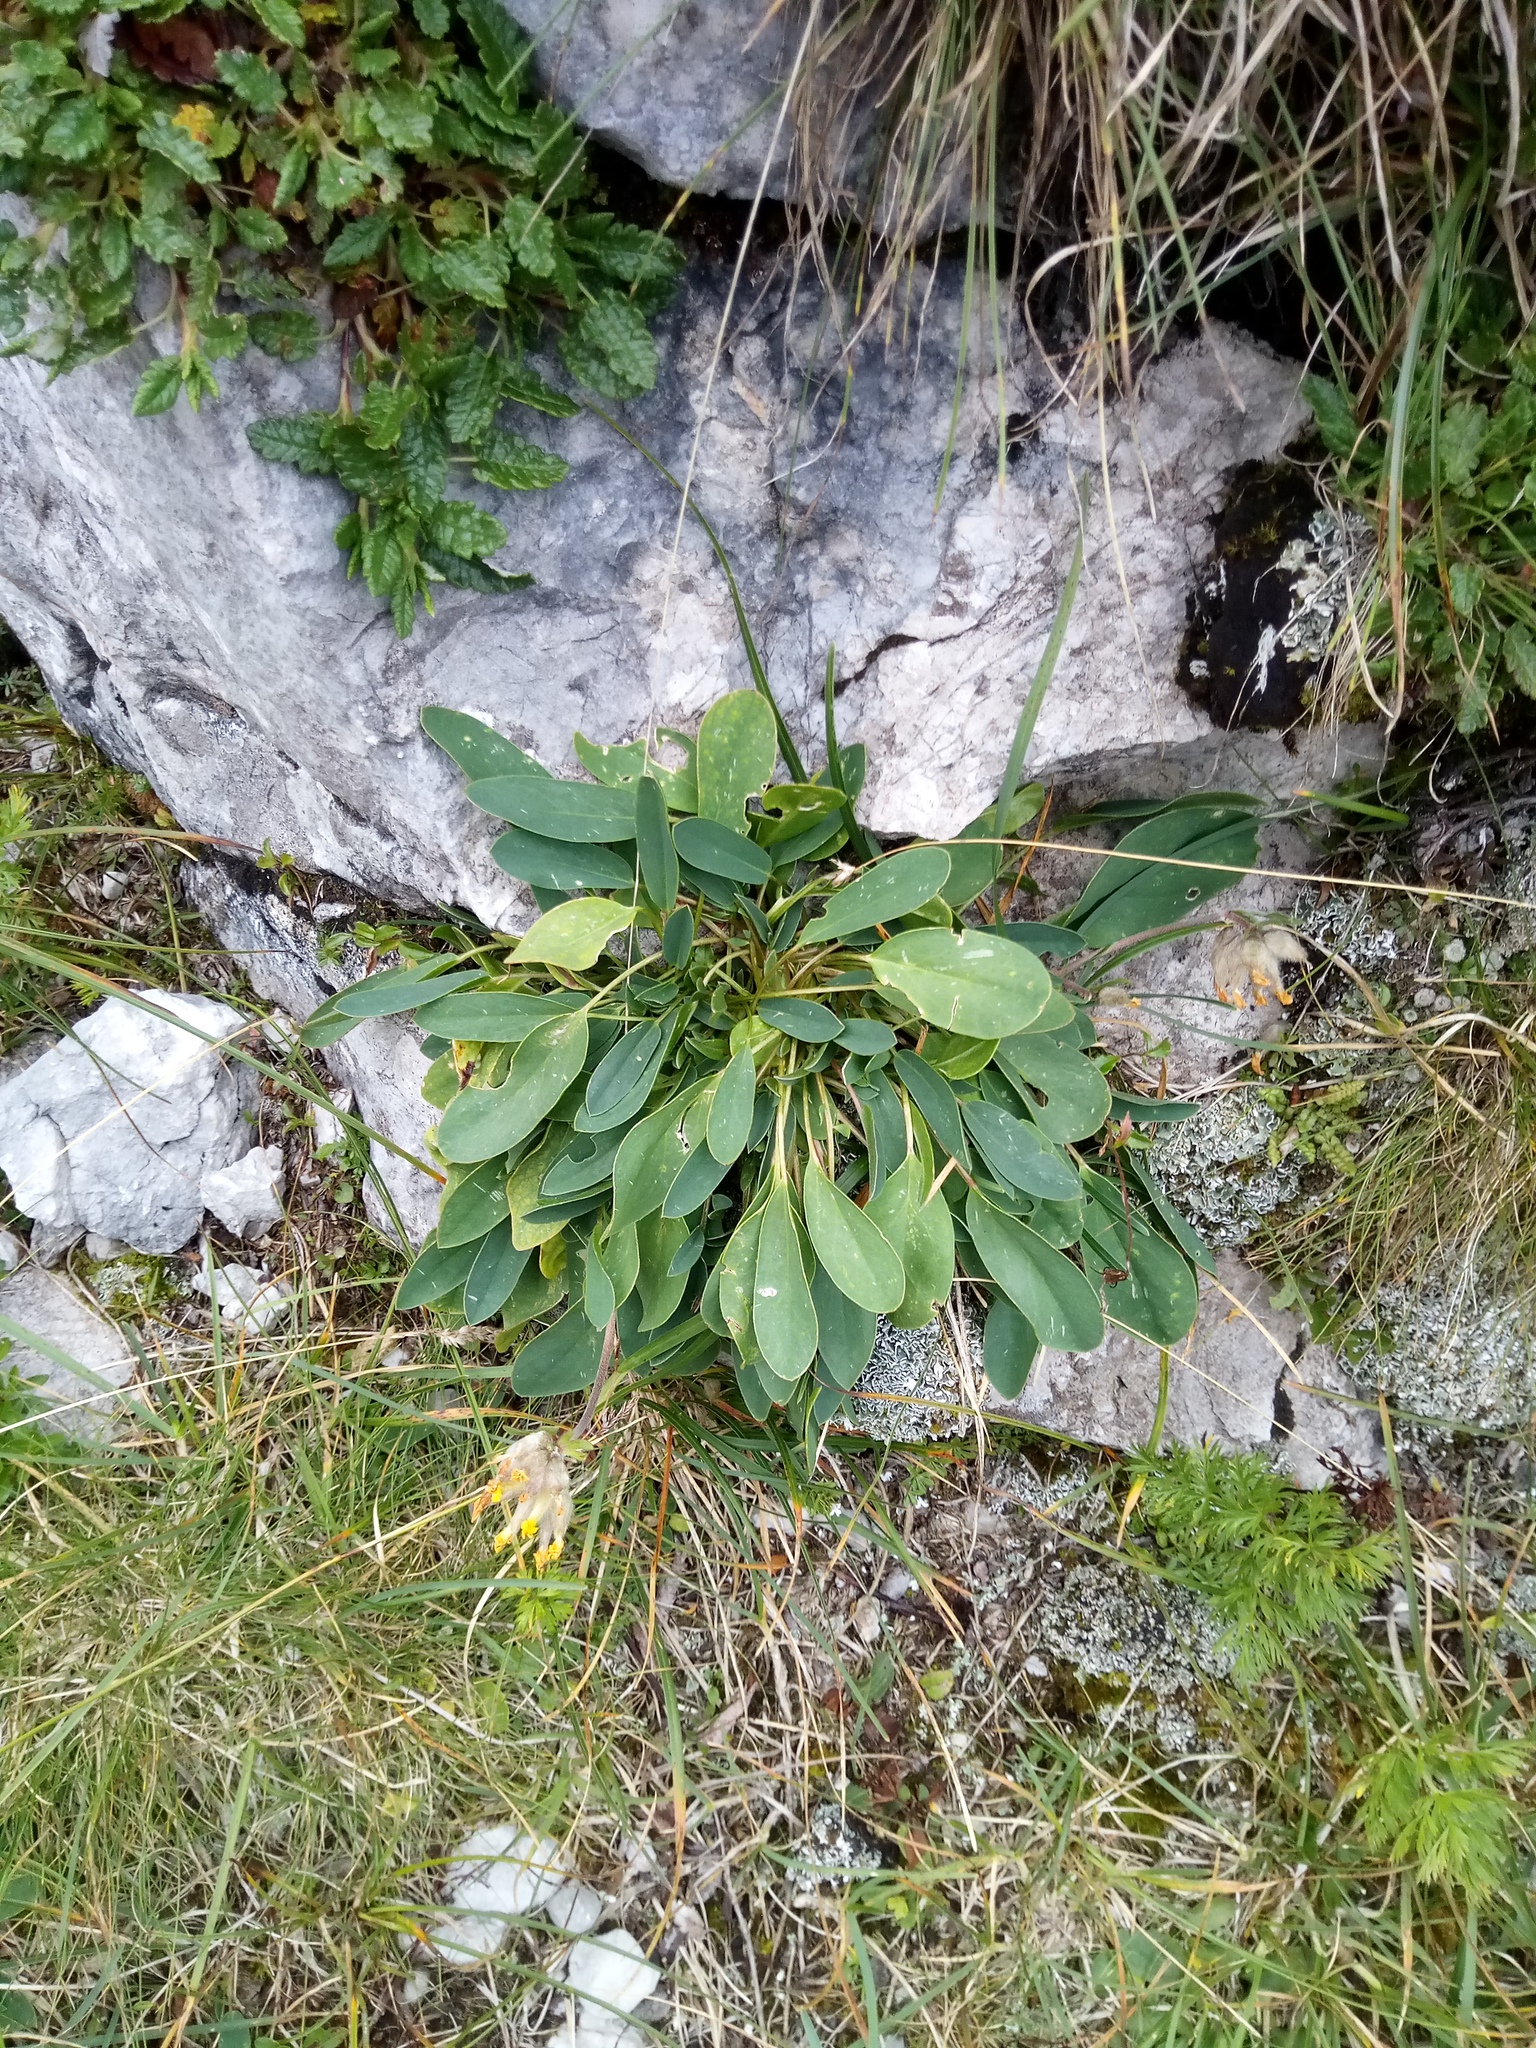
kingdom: Plantae
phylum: Tracheophyta
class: Magnoliopsida
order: Fabales
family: Fabaceae
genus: Anthyllis
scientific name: Anthyllis vulneraria
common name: Kidney vetch
